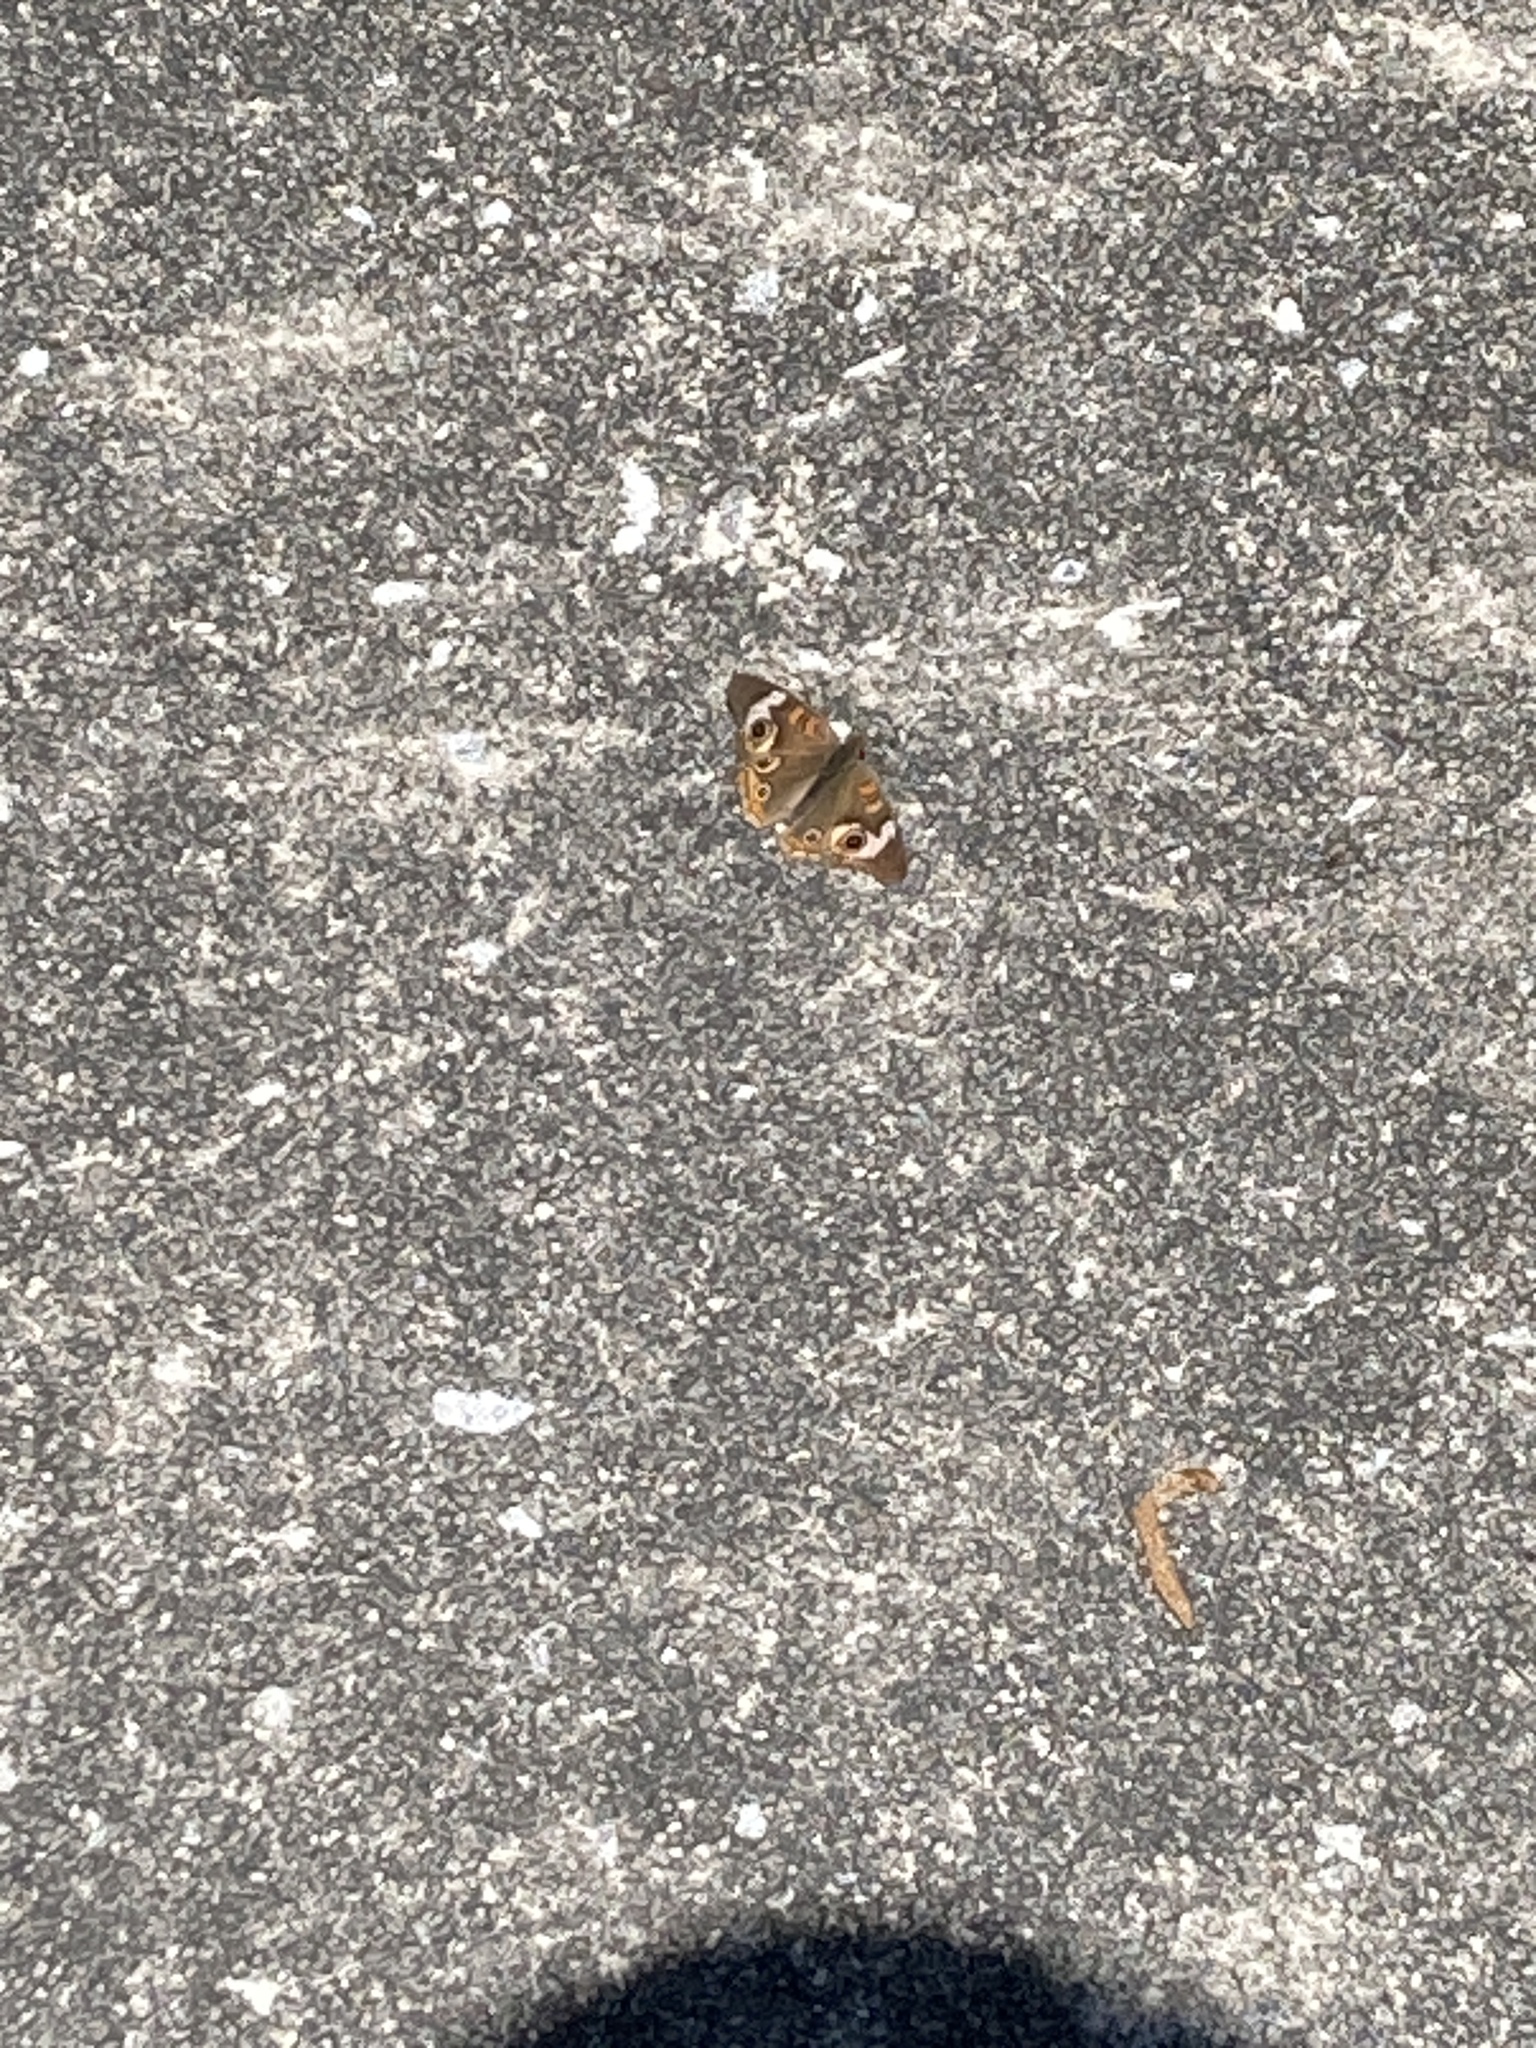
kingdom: Animalia
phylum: Arthropoda
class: Insecta
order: Lepidoptera
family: Nymphalidae
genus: Junonia
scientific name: Junonia coenia
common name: Common buckeye
